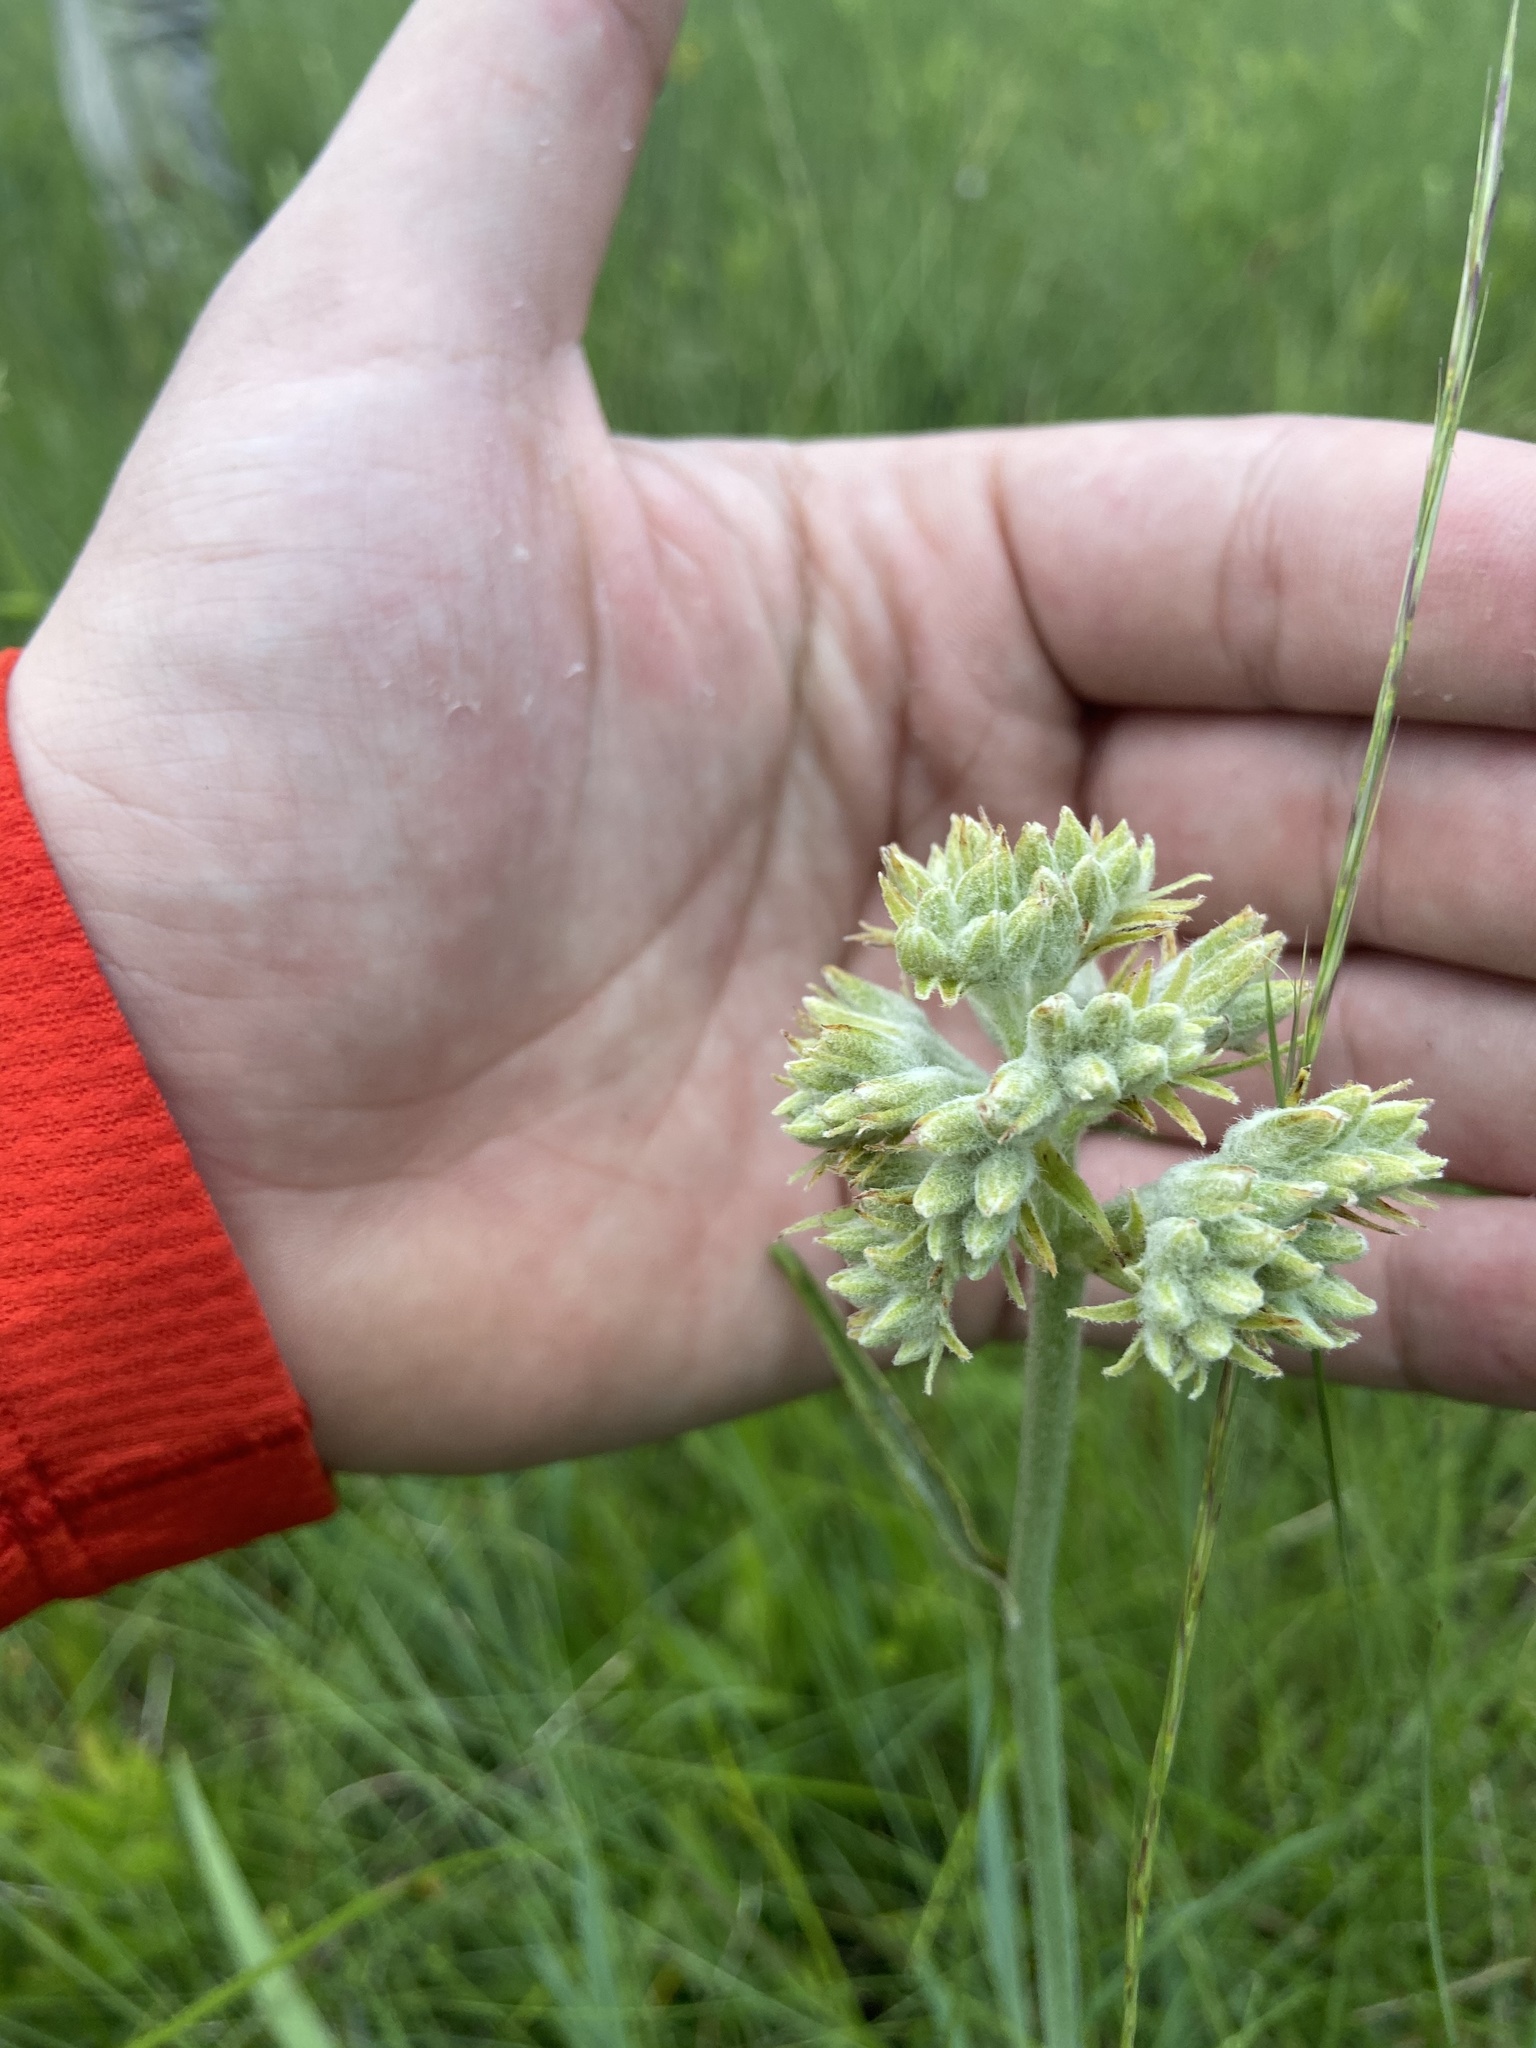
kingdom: Plantae
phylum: Tracheophyta
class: Liliopsida
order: Commelinales
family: Haemodoraceae
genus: Lachnanthes
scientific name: Lachnanthes caroliana
